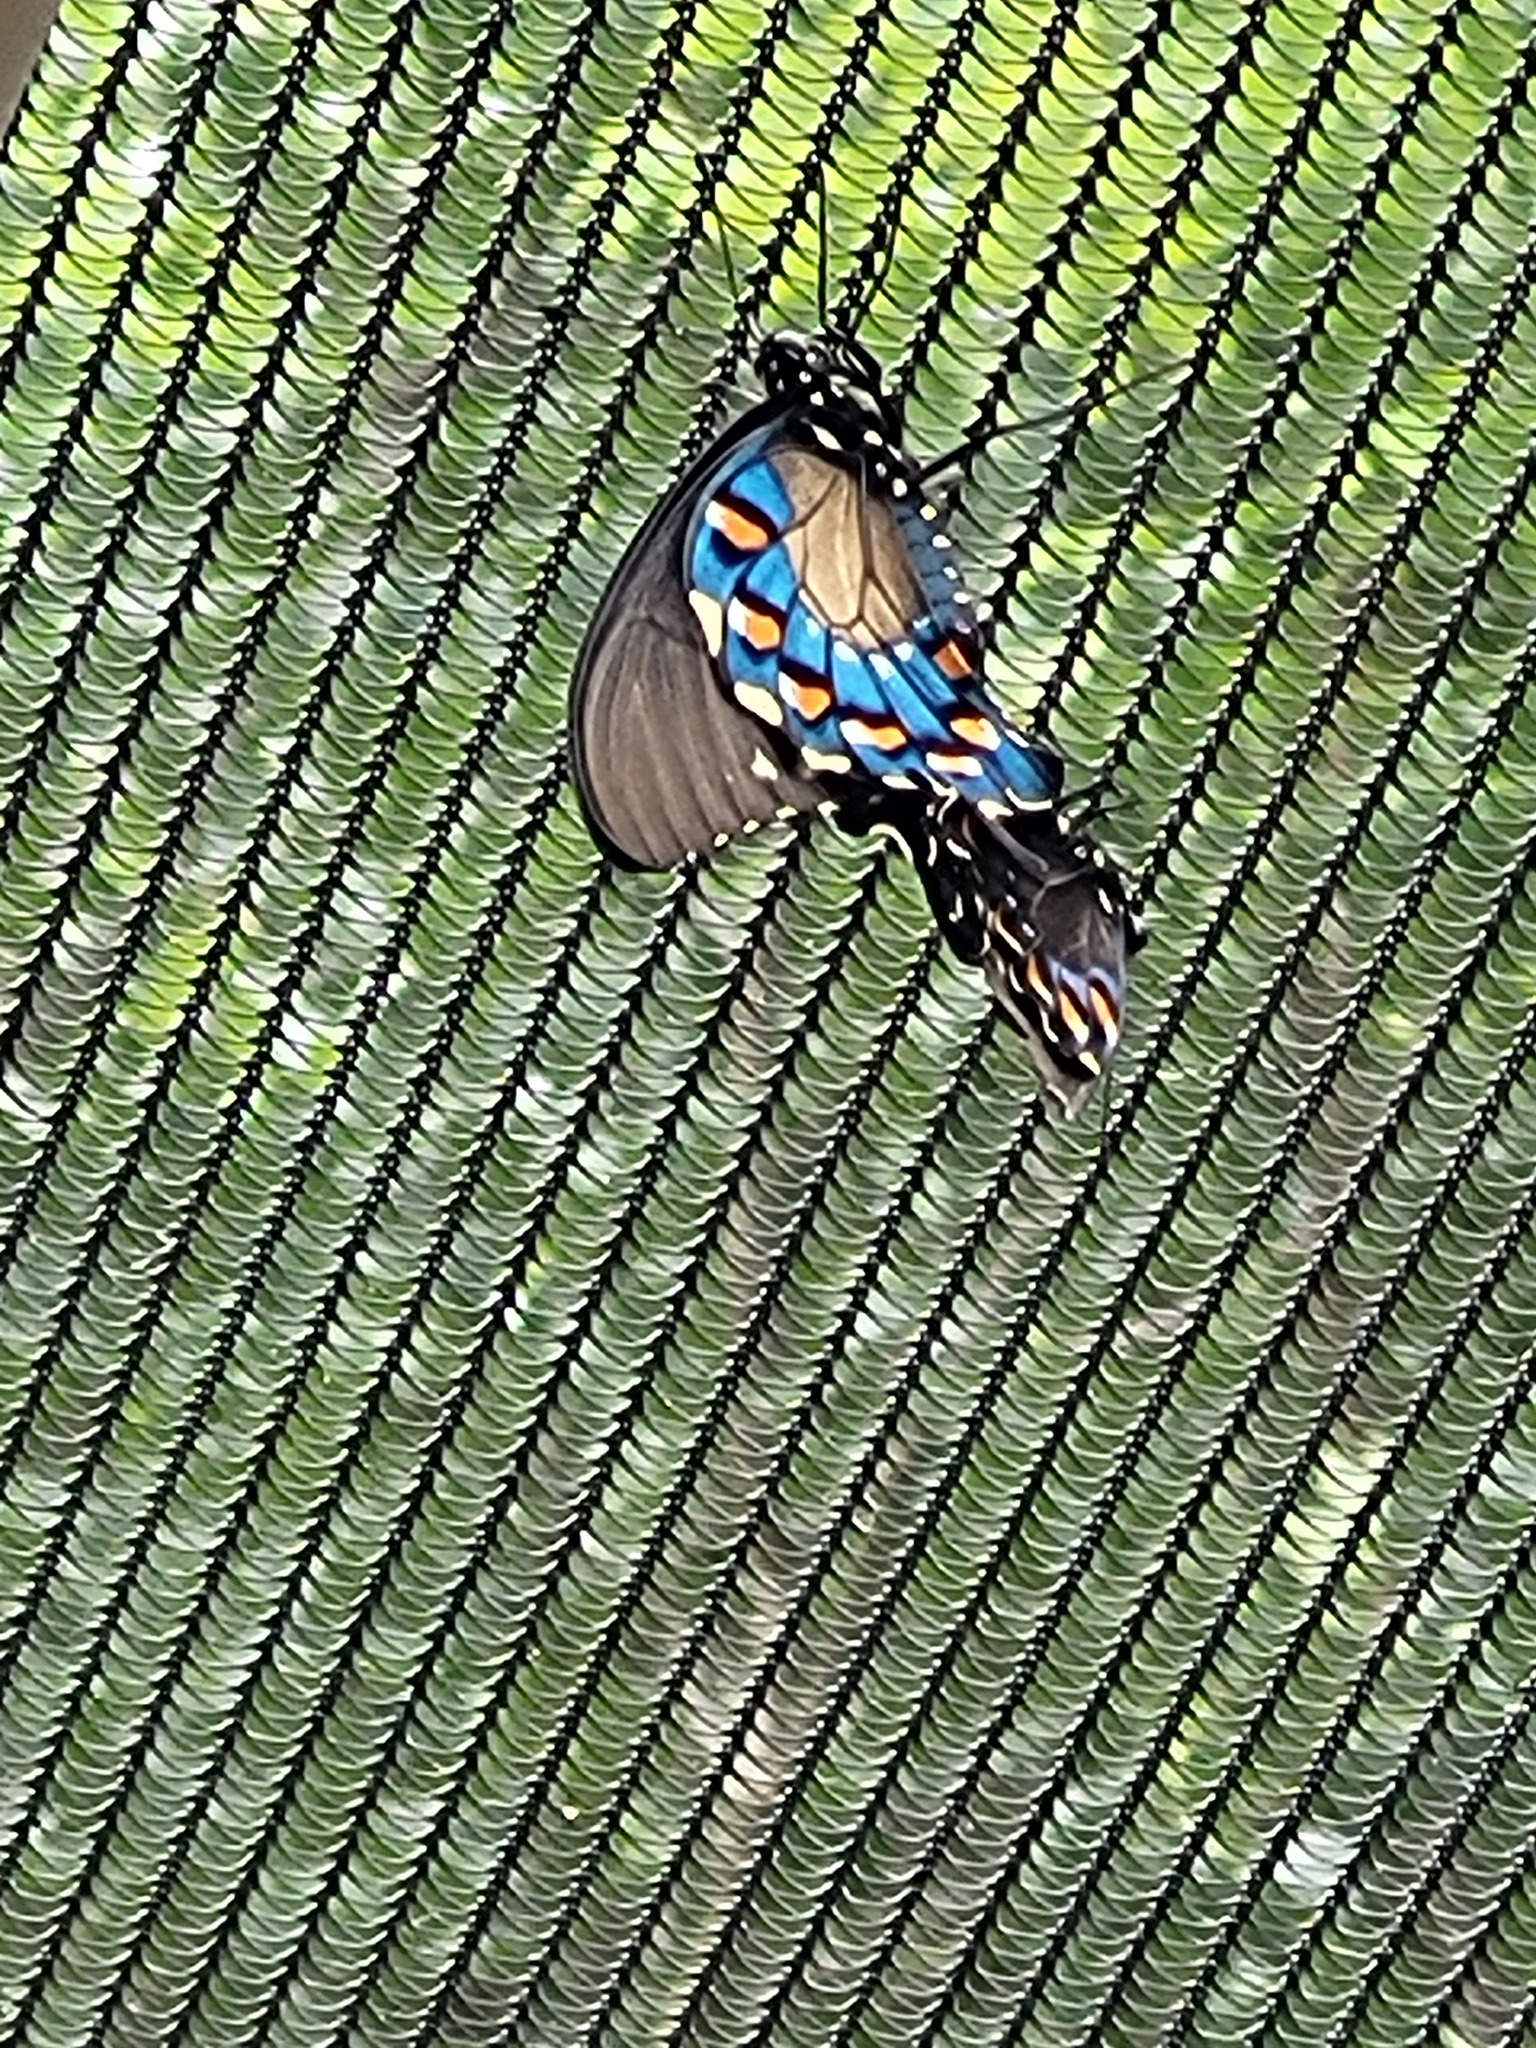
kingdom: Animalia
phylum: Arthropoda
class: Insecta
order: Lepidoptera
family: Papilionidae
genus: Battus
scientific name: Battus philenor
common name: Pipevine swallowtail
